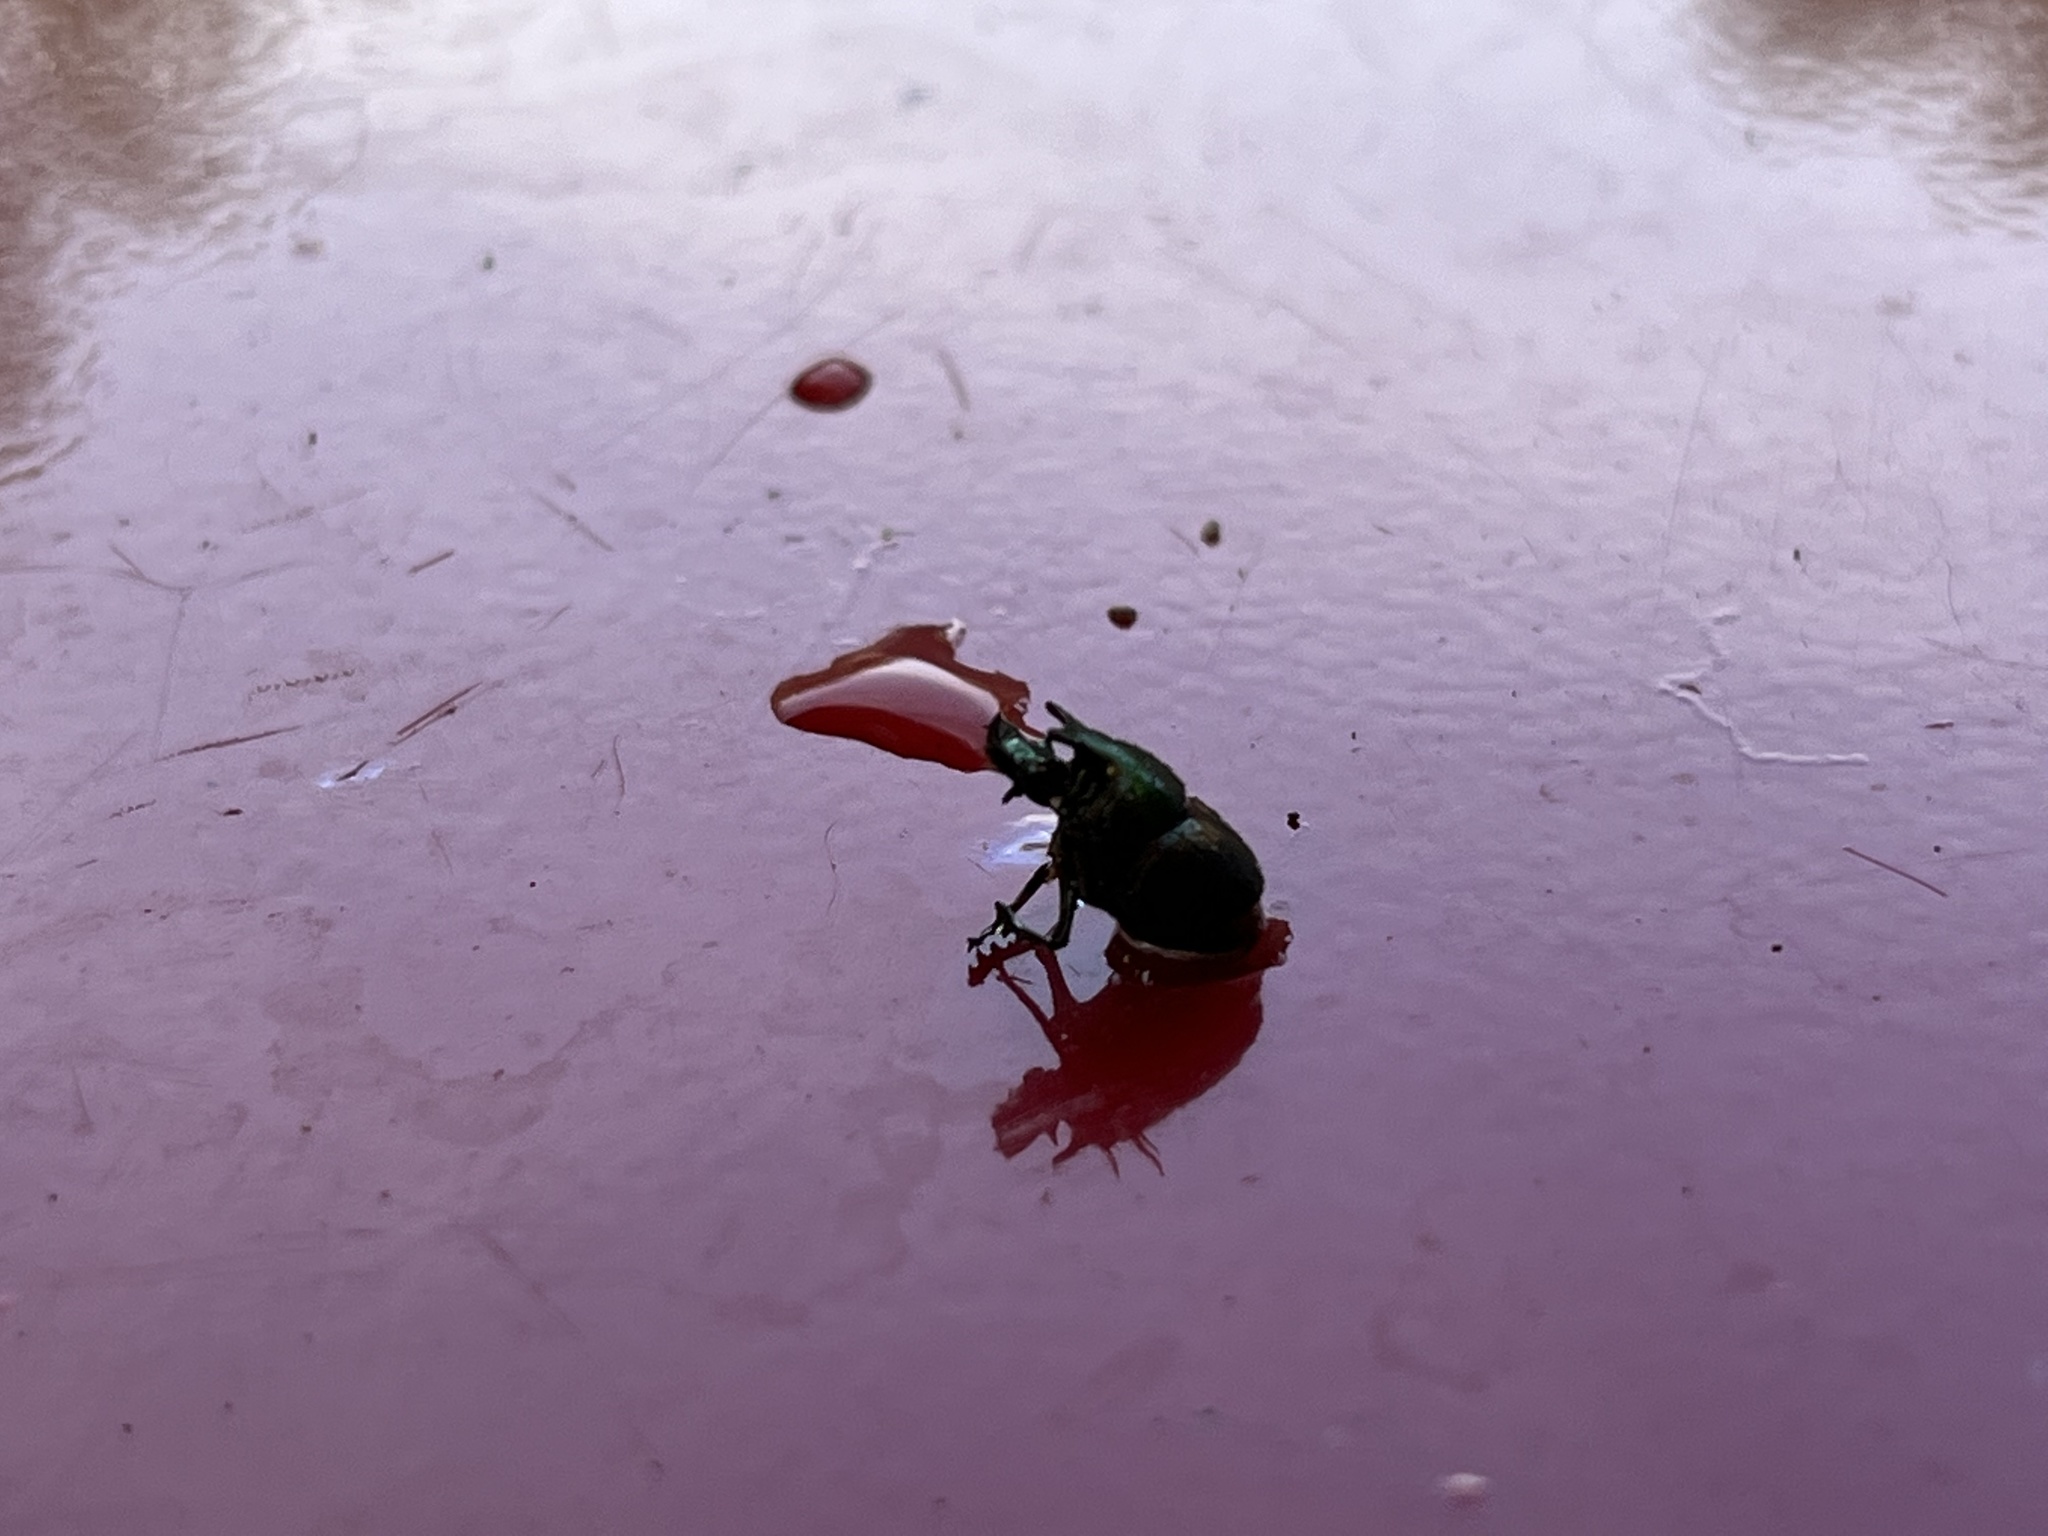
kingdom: Animalia
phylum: Arthropoda
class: Insecta
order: Coleoptera
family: Scarabaeidae
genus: Onthophagus
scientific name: Onthophagus concinnus
